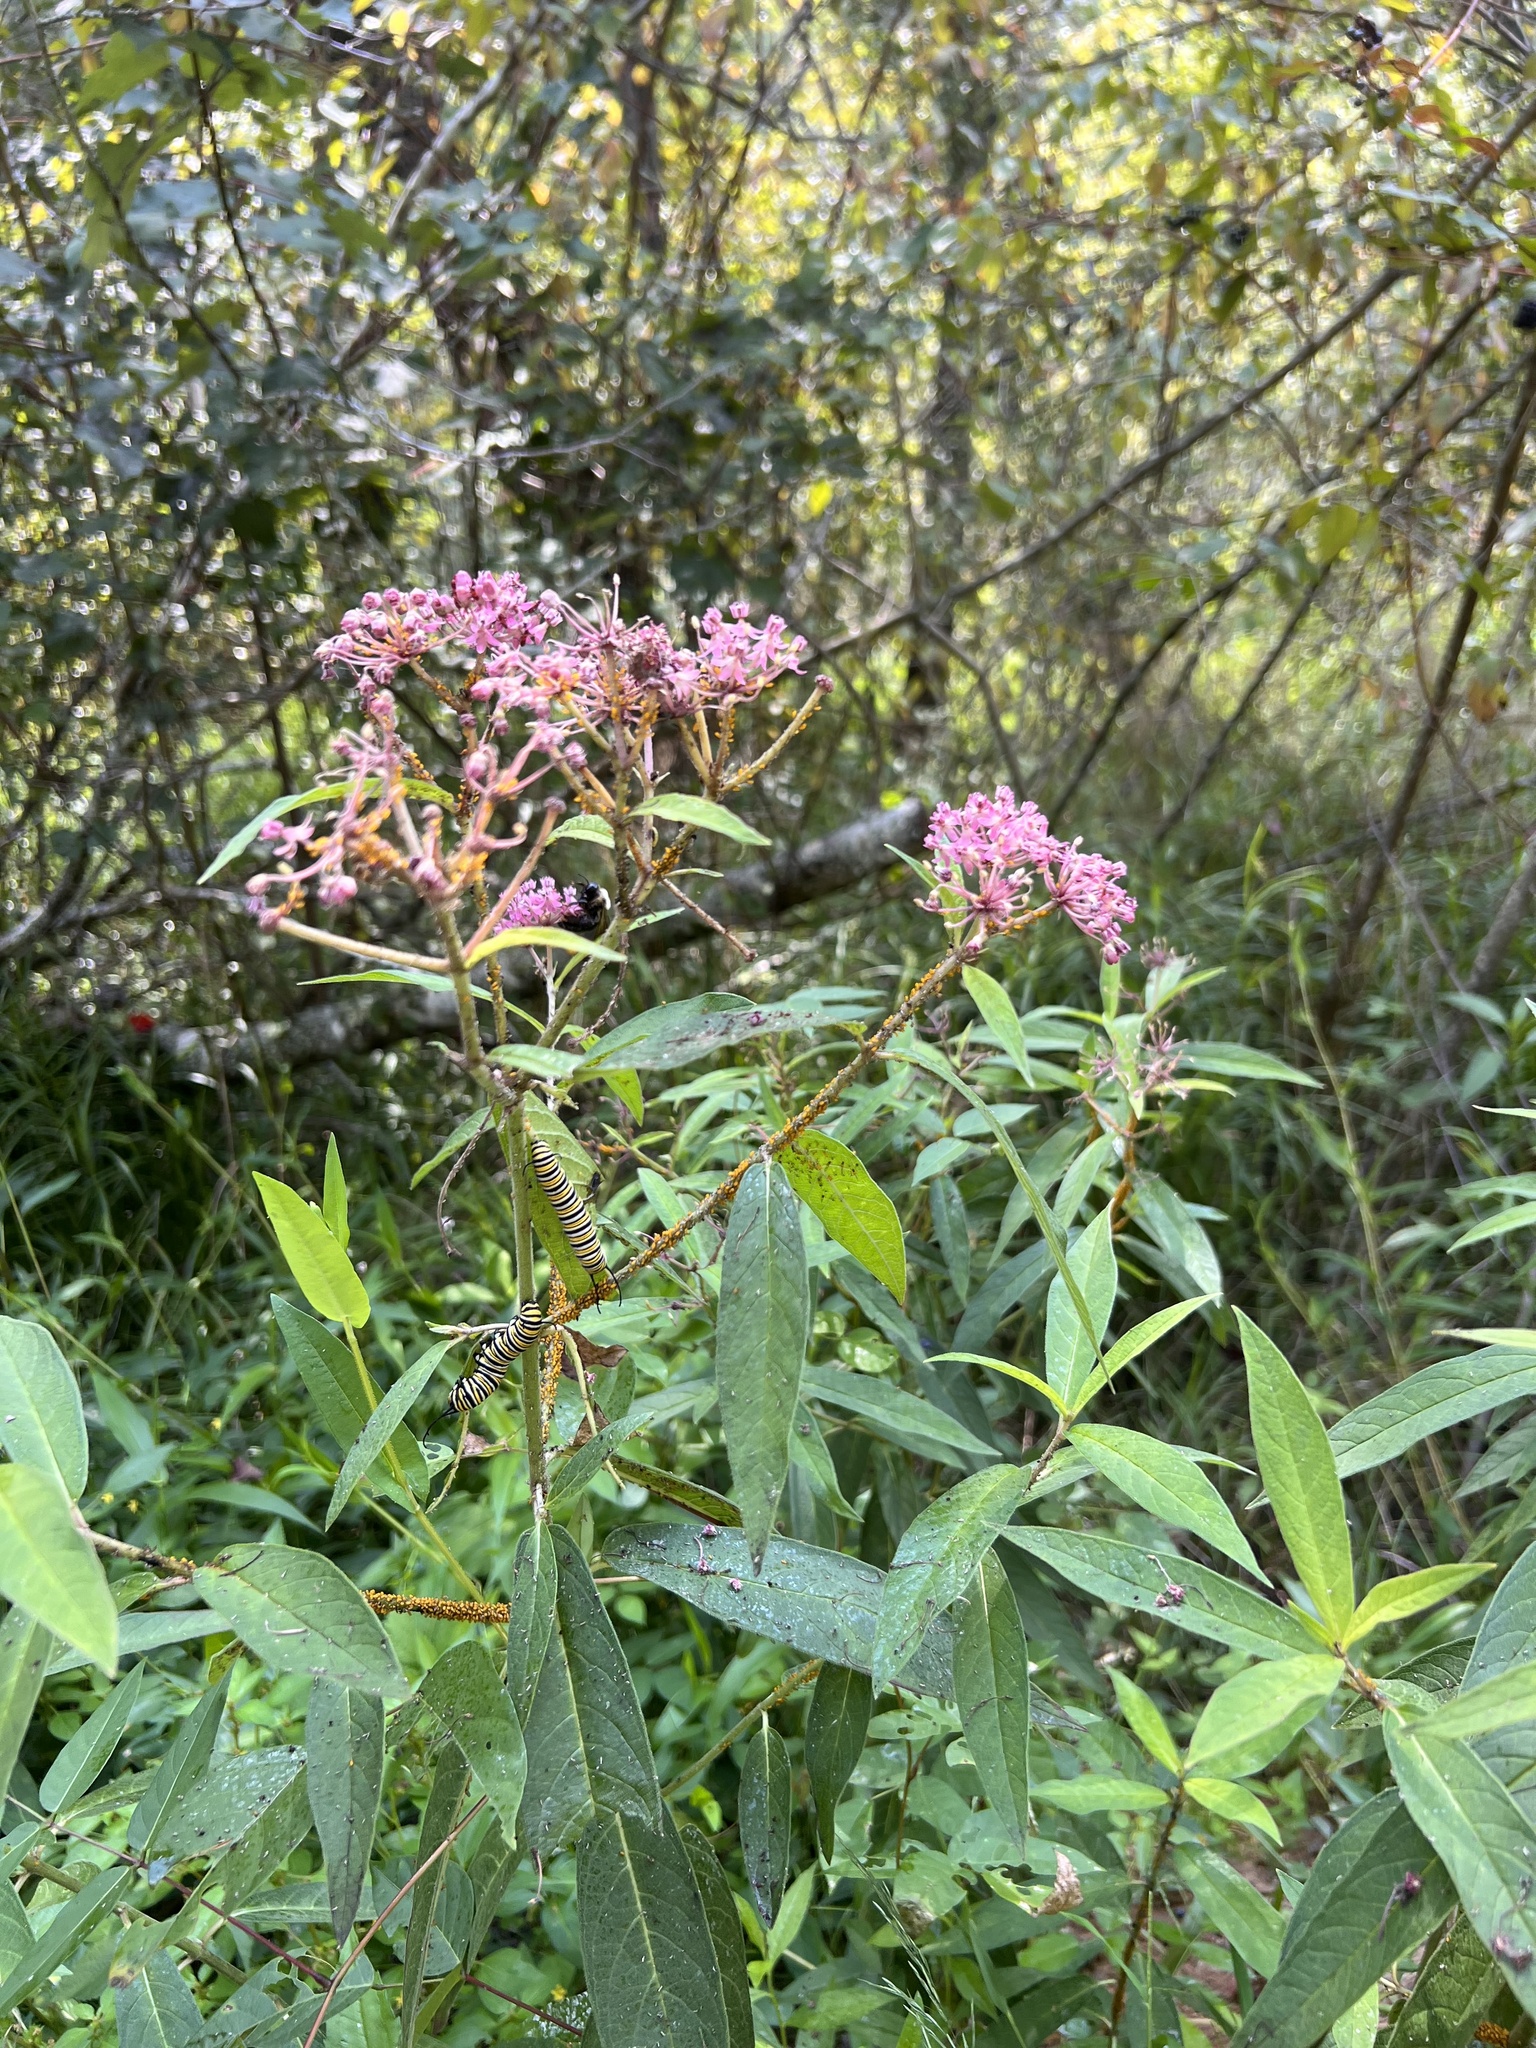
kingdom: Animalia
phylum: Arthropoda
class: Insecta
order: Lepidoptera
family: Nymphalidae
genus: Danaus
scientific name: Danaus plexippus
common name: Monarch
